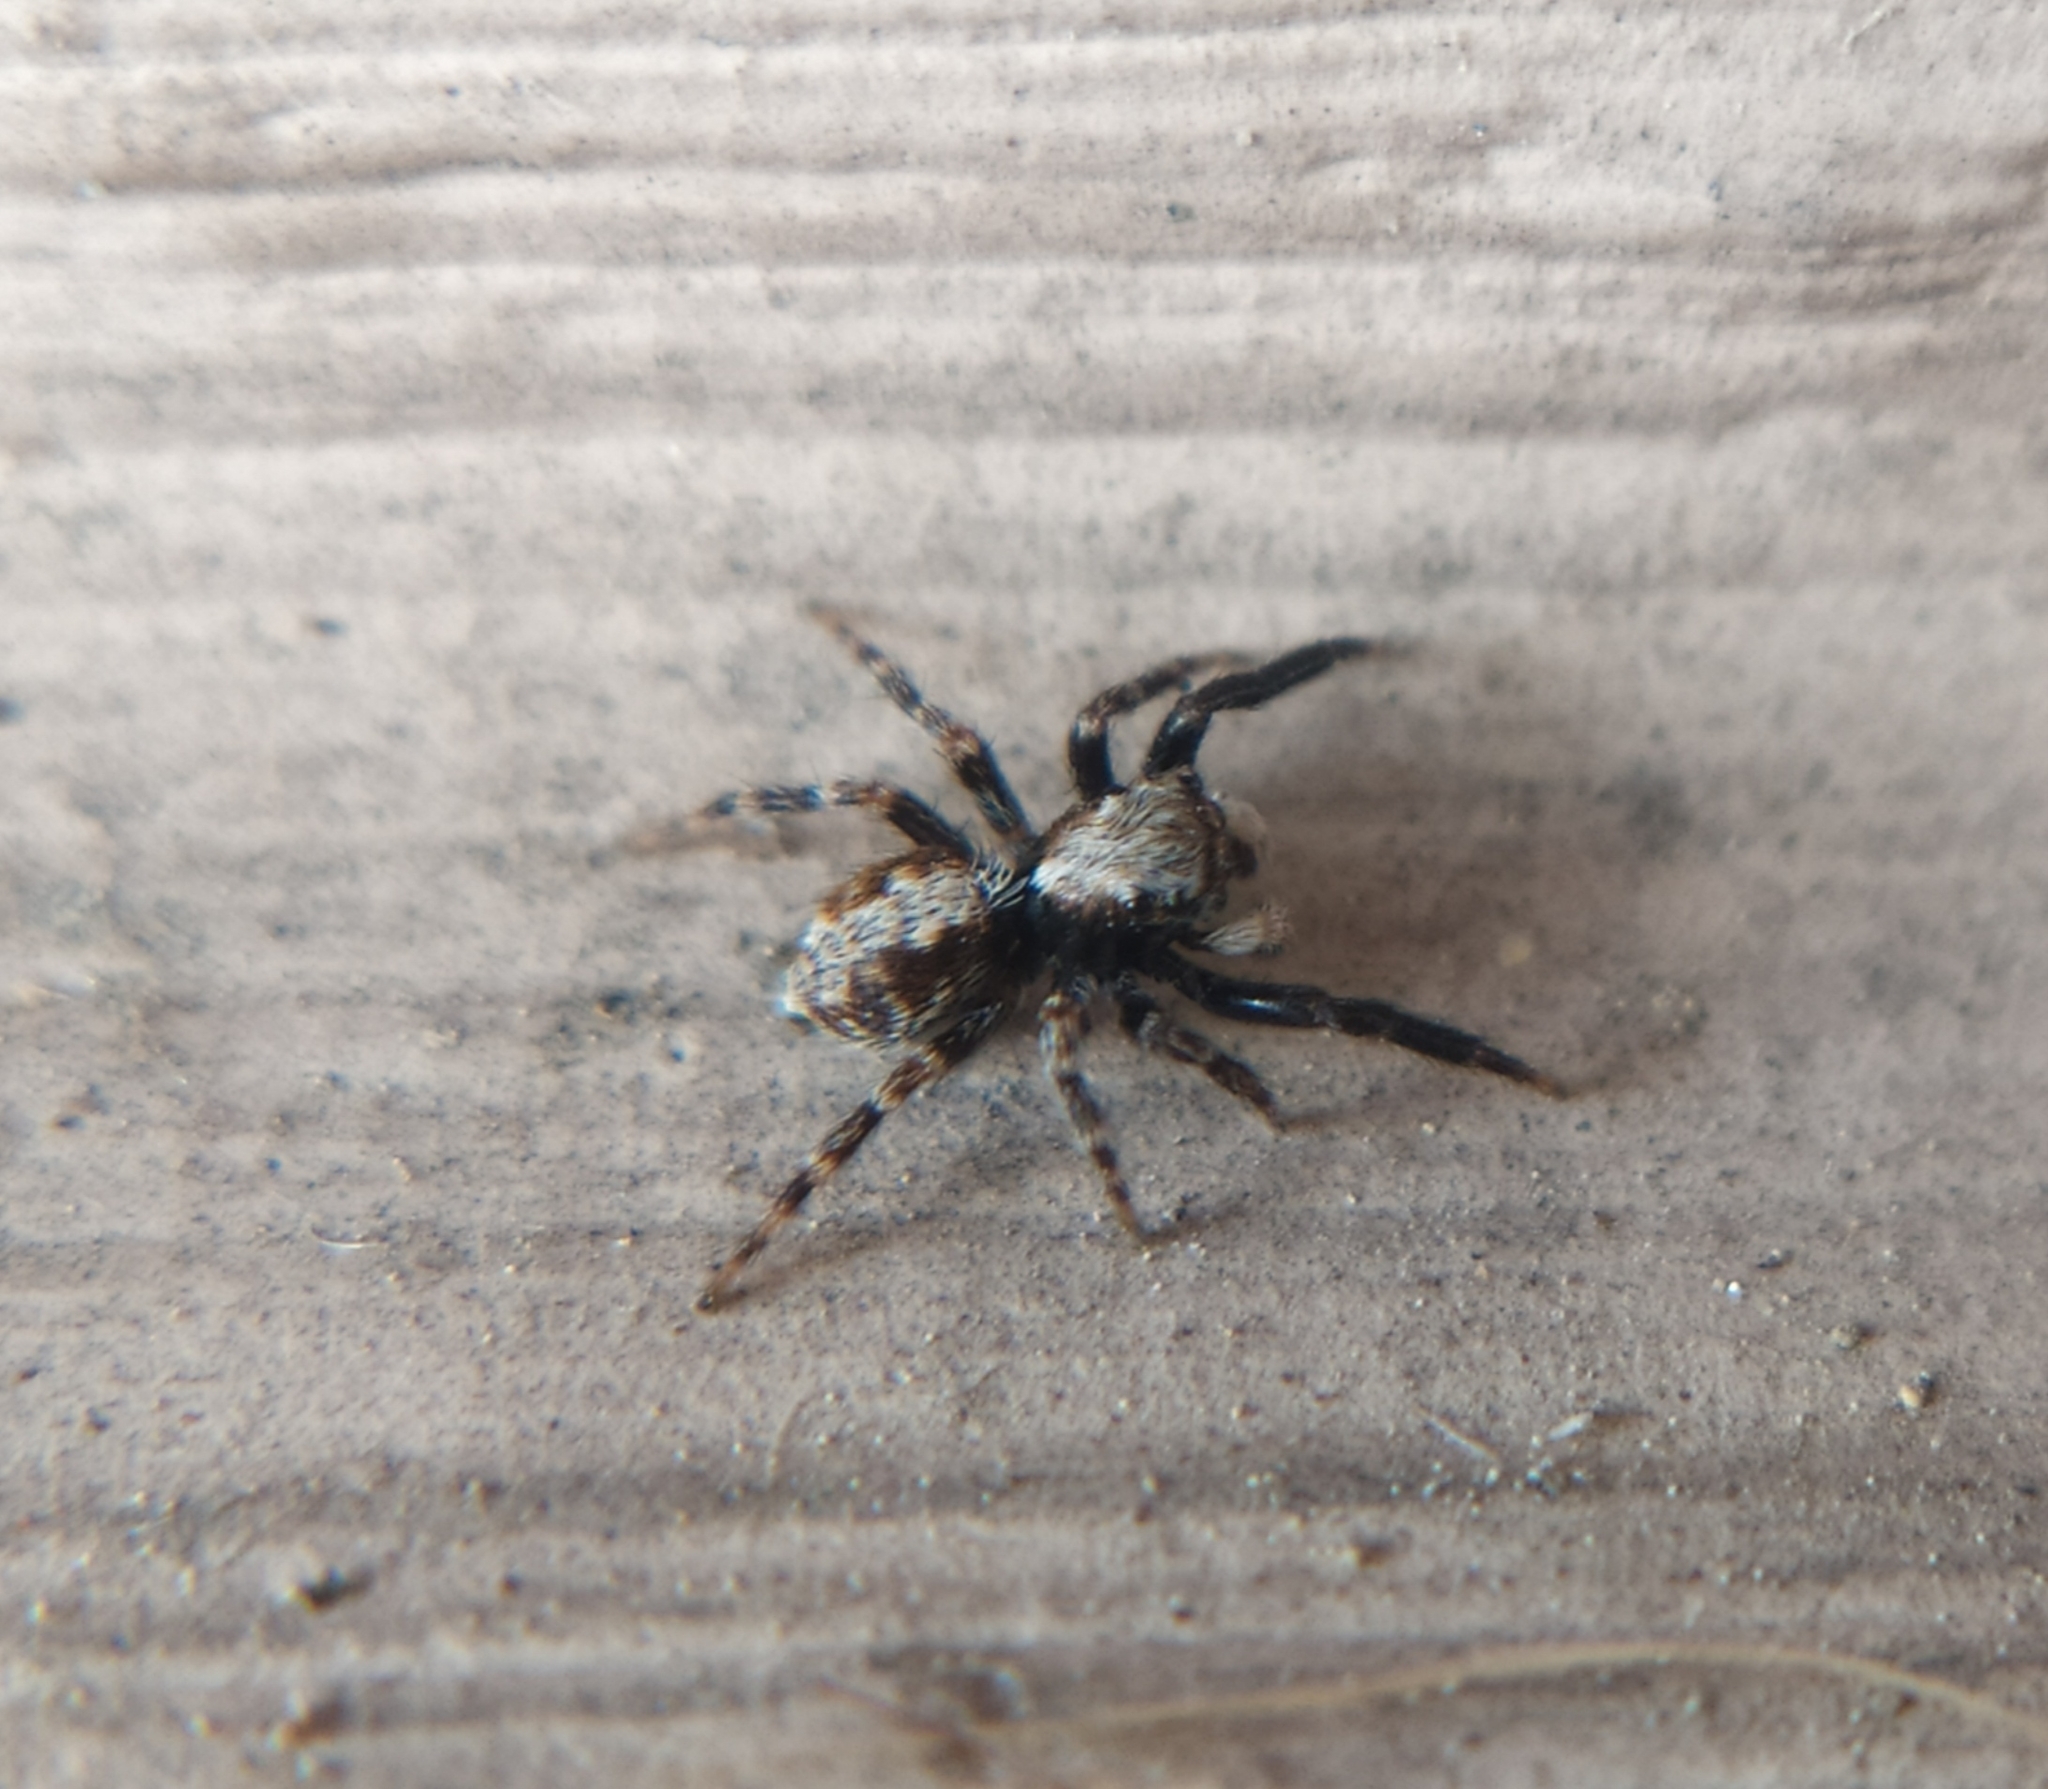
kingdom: Animalia
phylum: Arthropoda
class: Arachnida
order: Araneae
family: Salticidae
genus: Pseudeuophrys
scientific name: Pseudeuophrys lanigera
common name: Jumping spider
